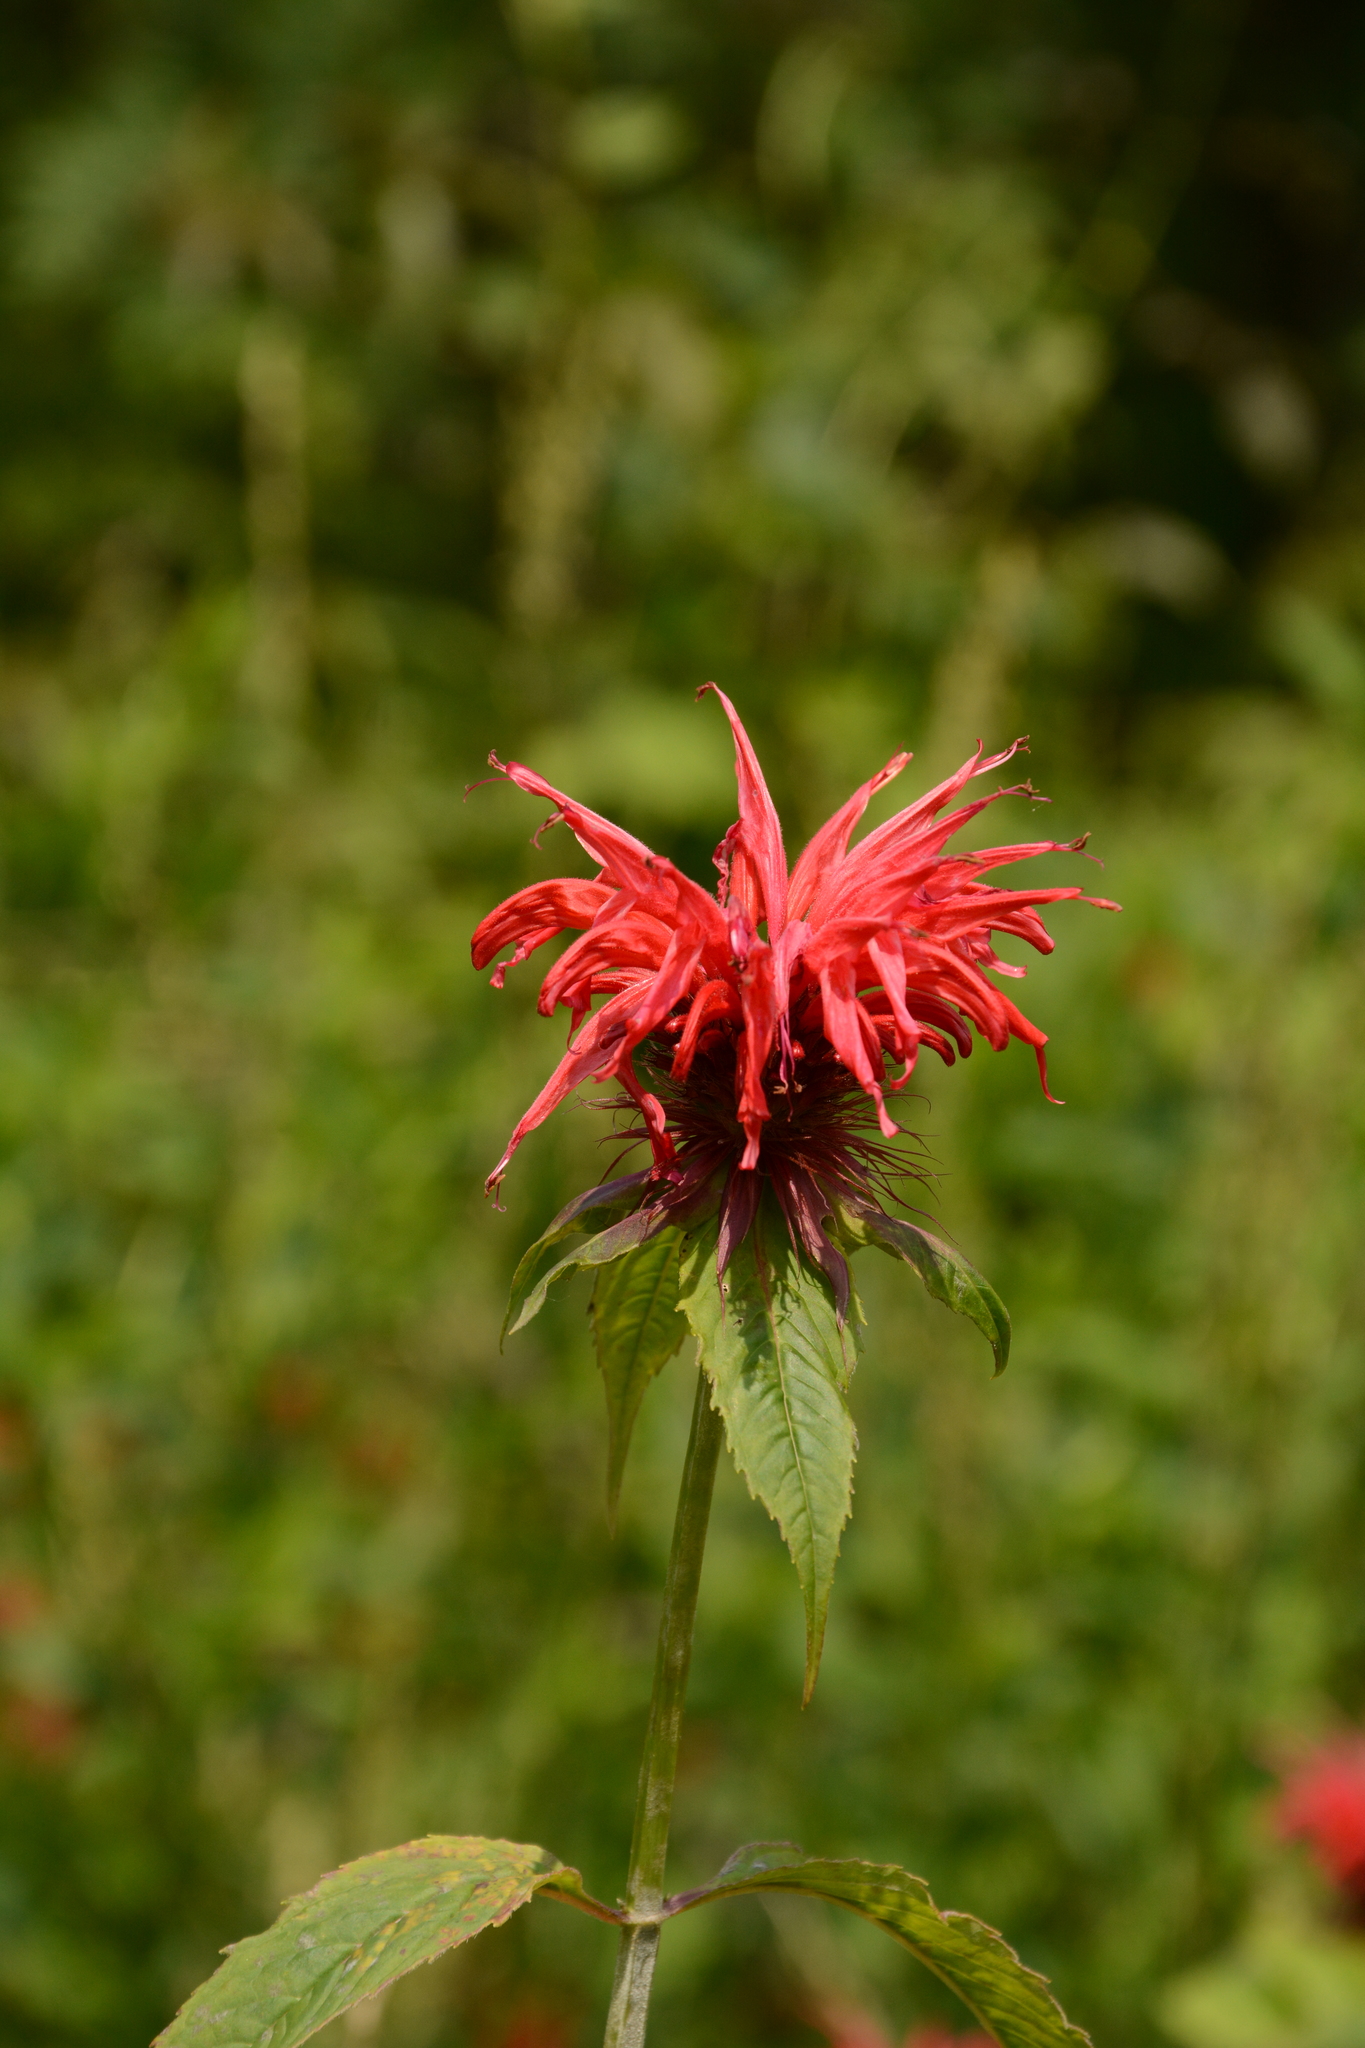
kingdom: Plantae
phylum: Tracheophyta
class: Magnoliopsida
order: Lamiales
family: Lamiaceae
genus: Monarda
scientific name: Monarda didyma
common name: Beebalm
